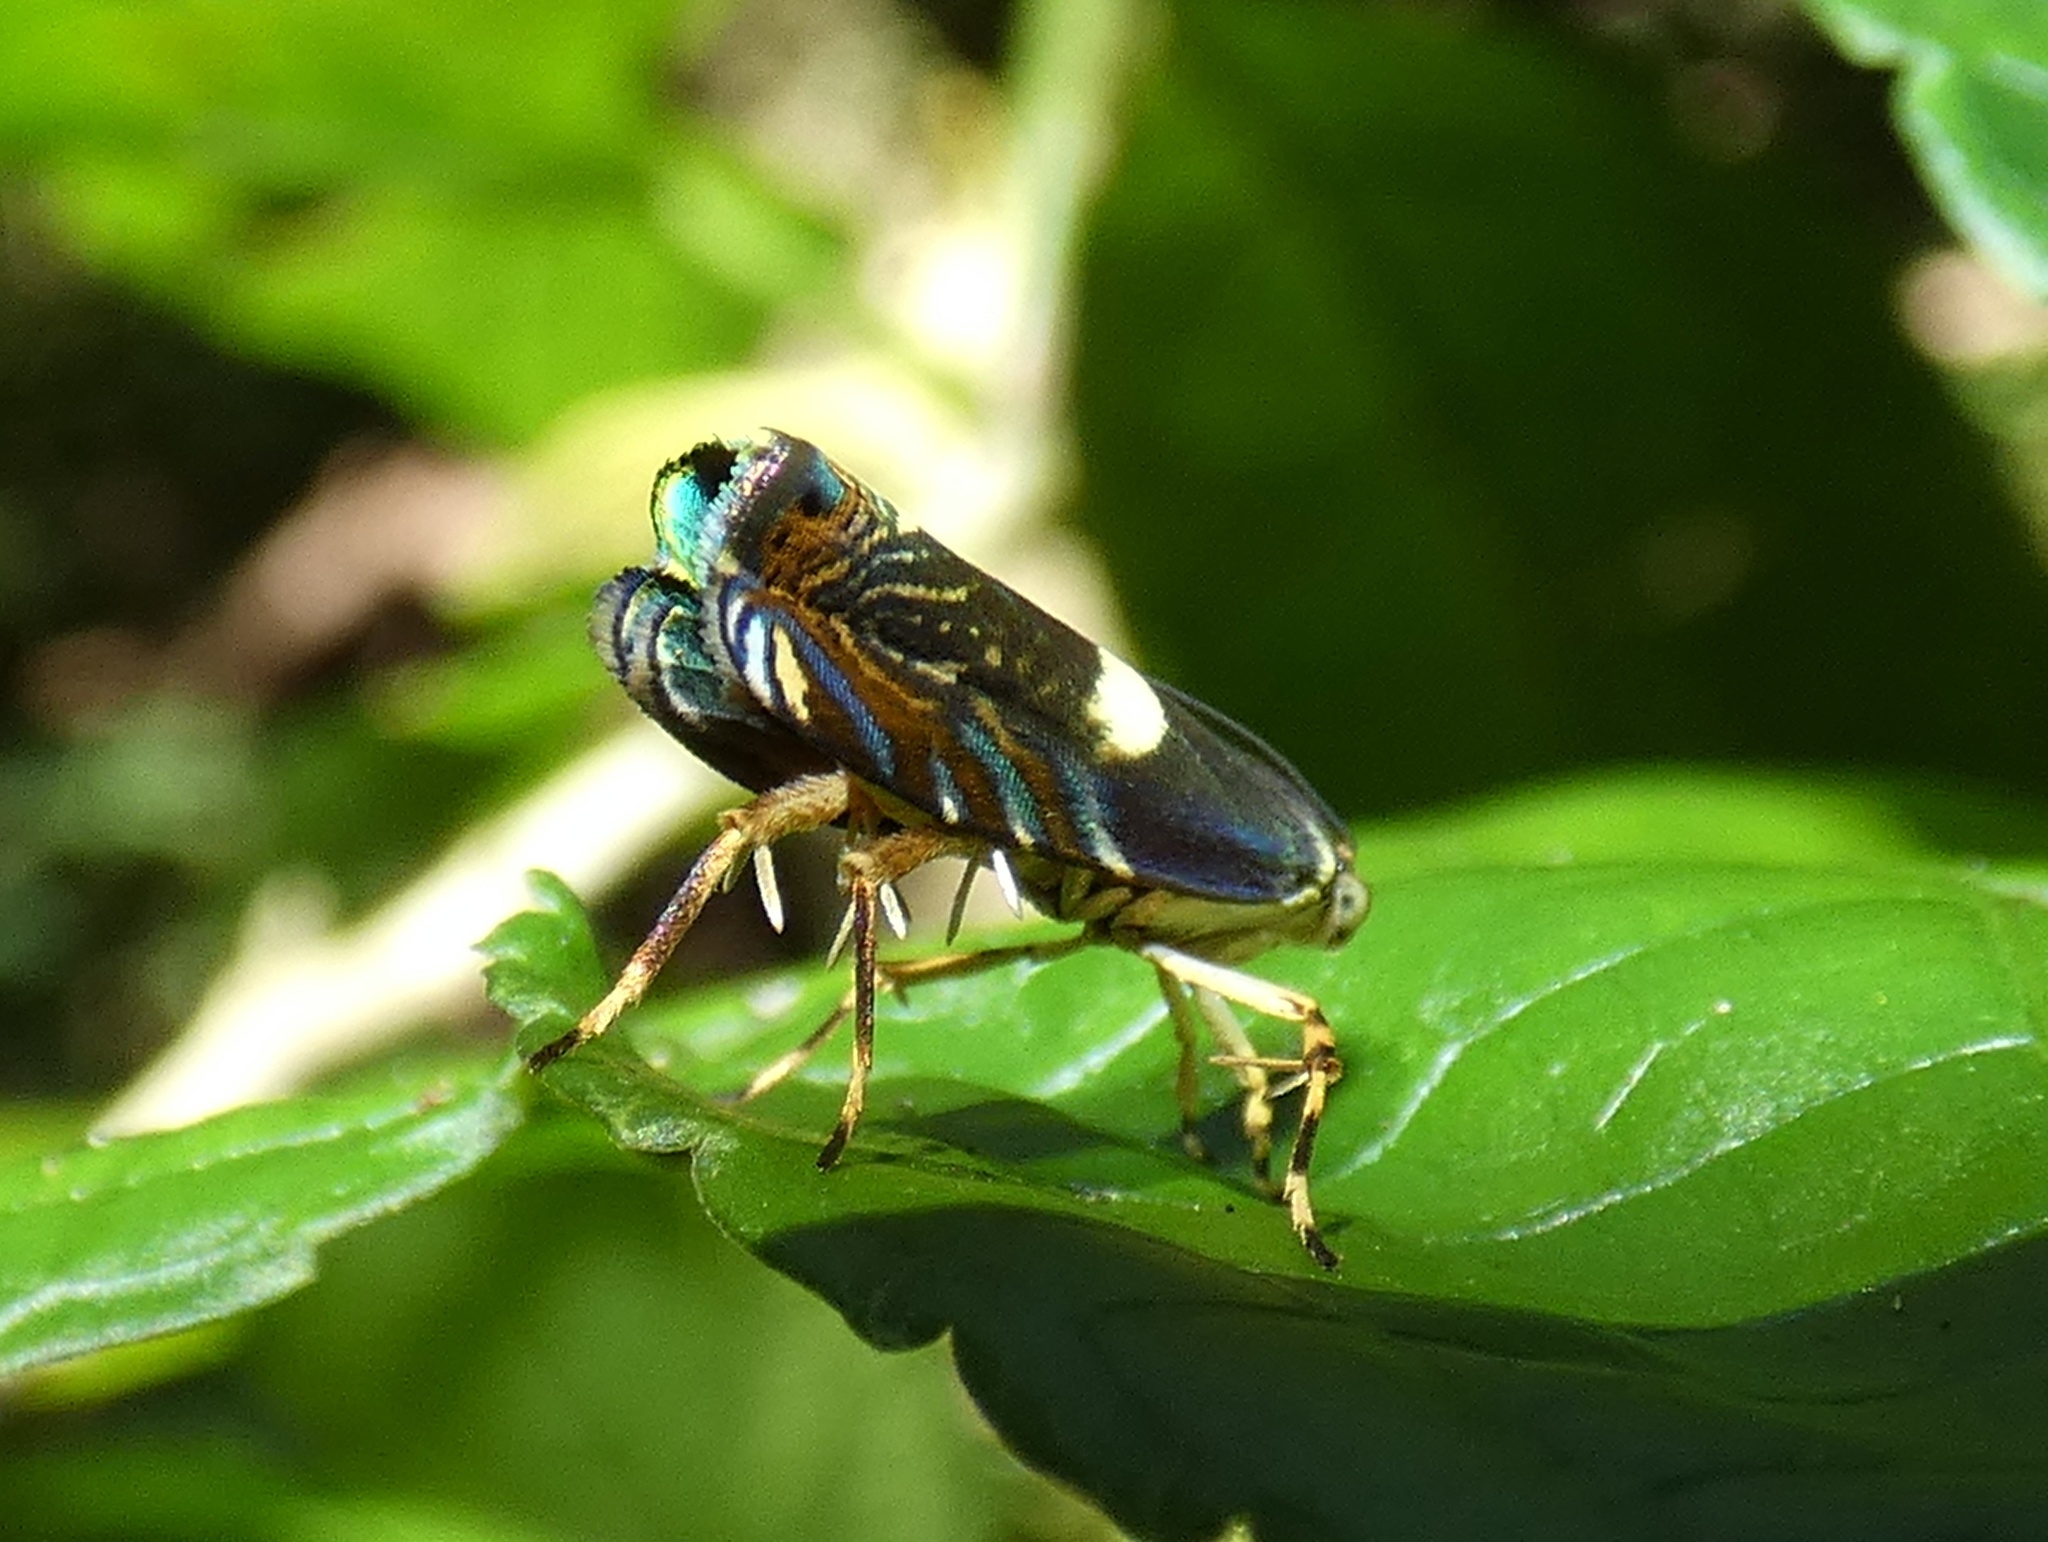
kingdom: Animalia
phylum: Arthropoda
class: Insecta
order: Lepidoptera
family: Tortricidae
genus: Hilarographa
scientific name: Hilarographa plectanodes
